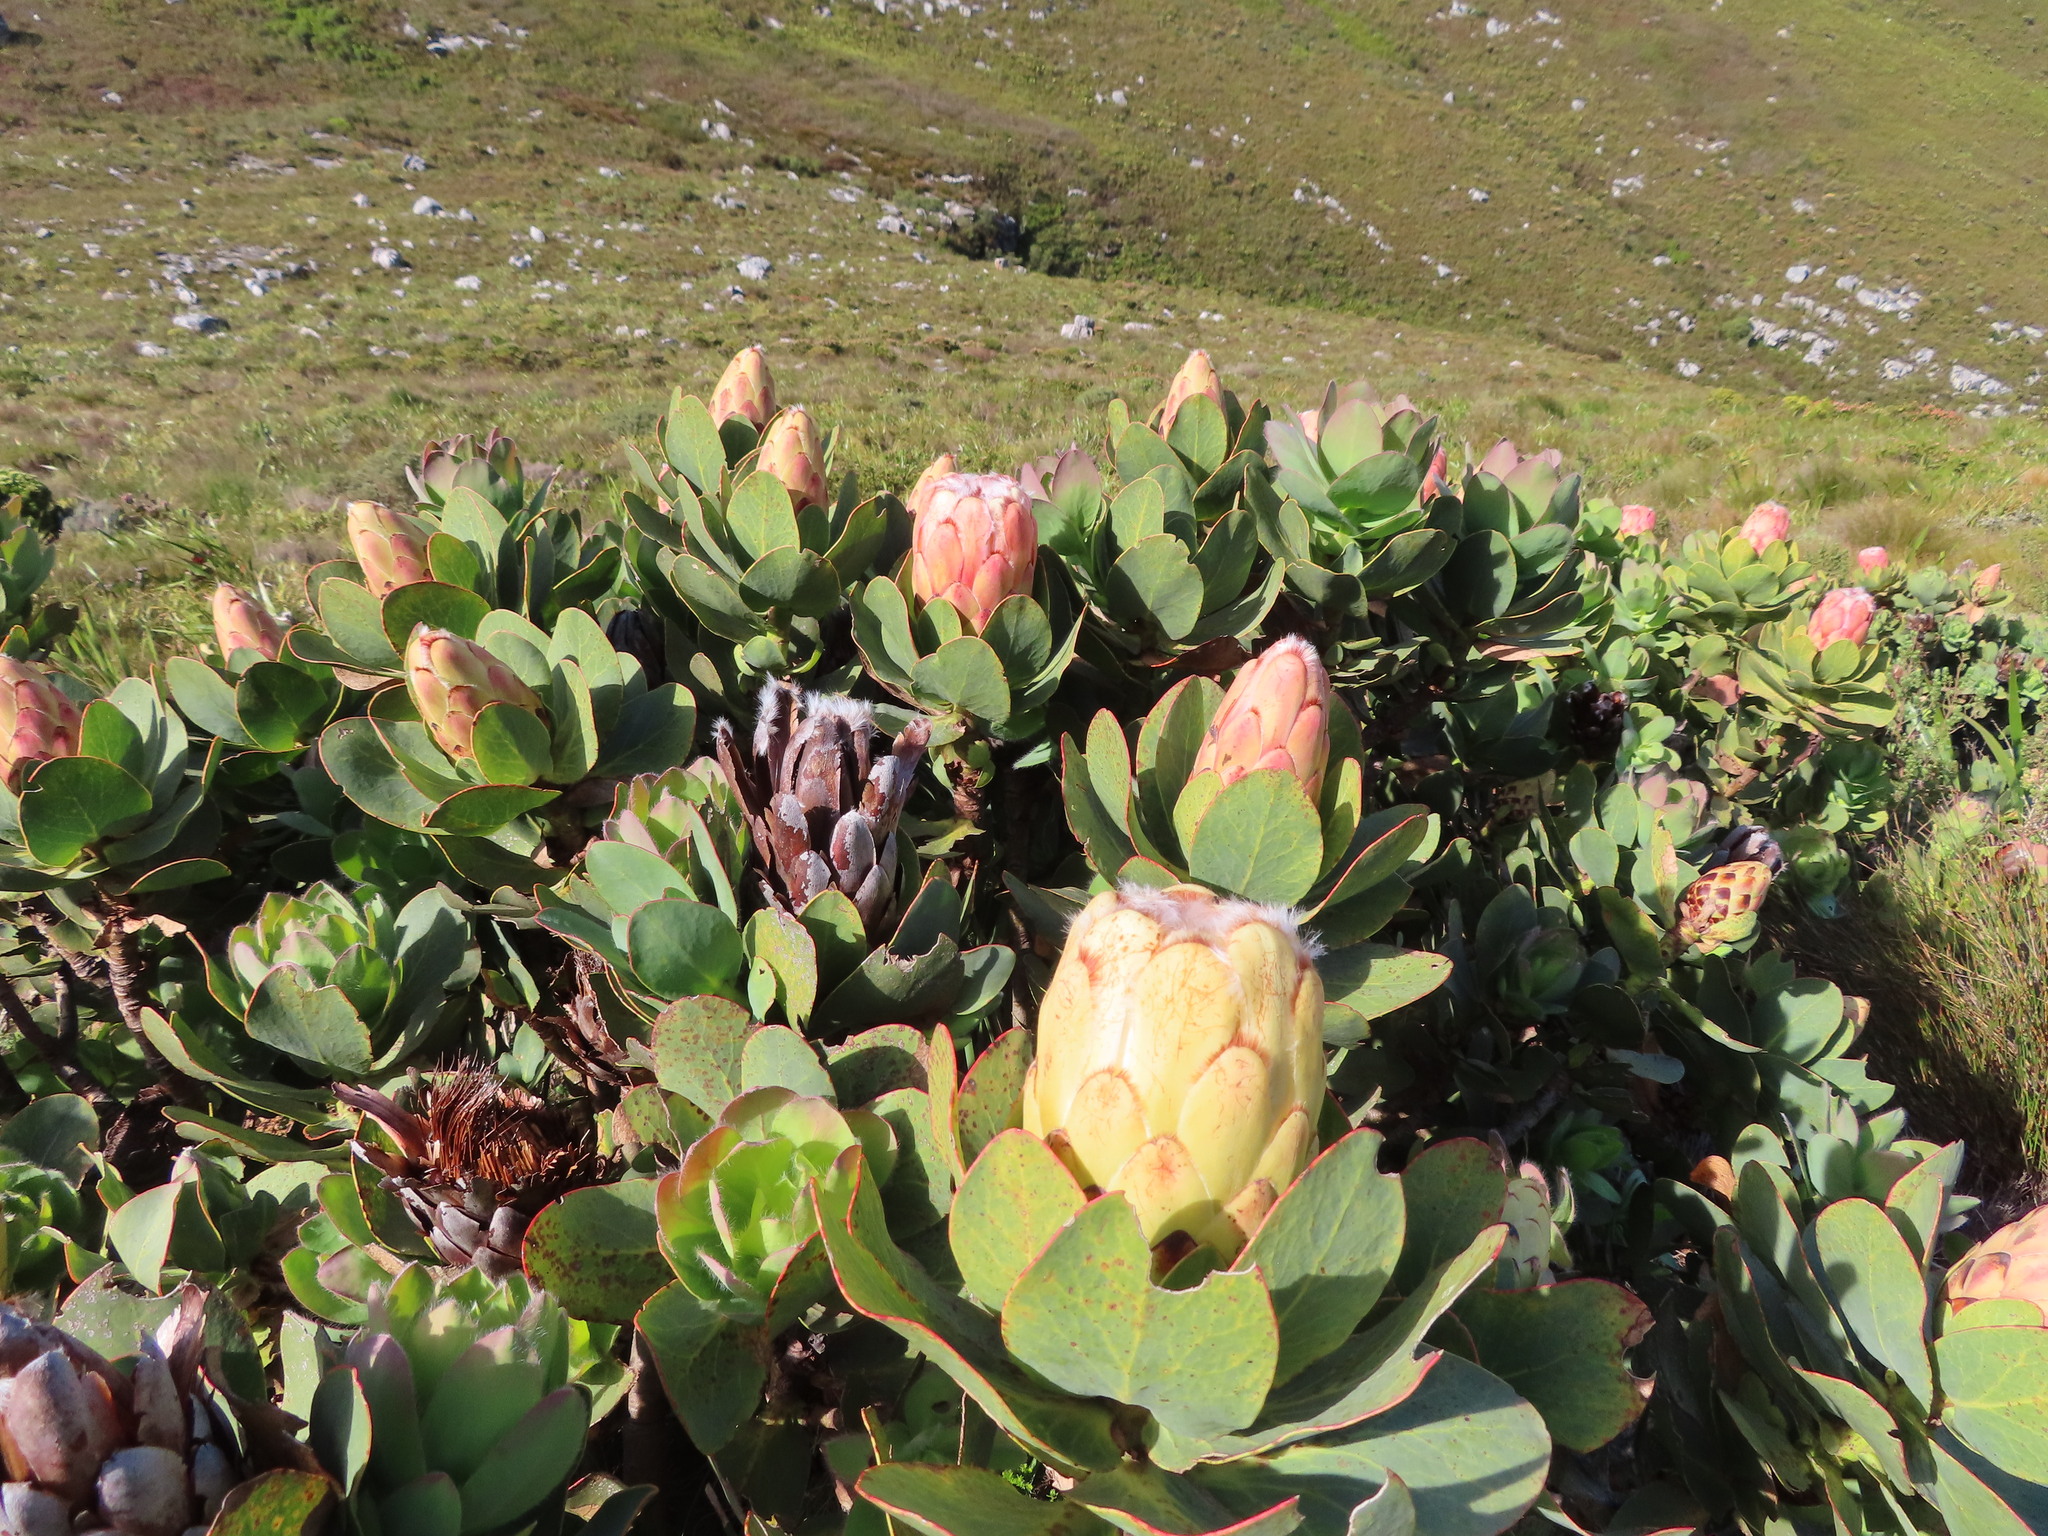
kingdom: Plantae
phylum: Tracheophyta
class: Magnoliopsida
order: Proteales
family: Proteaceae
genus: Protea
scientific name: Protea grandiceps
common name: Red sugarbush
